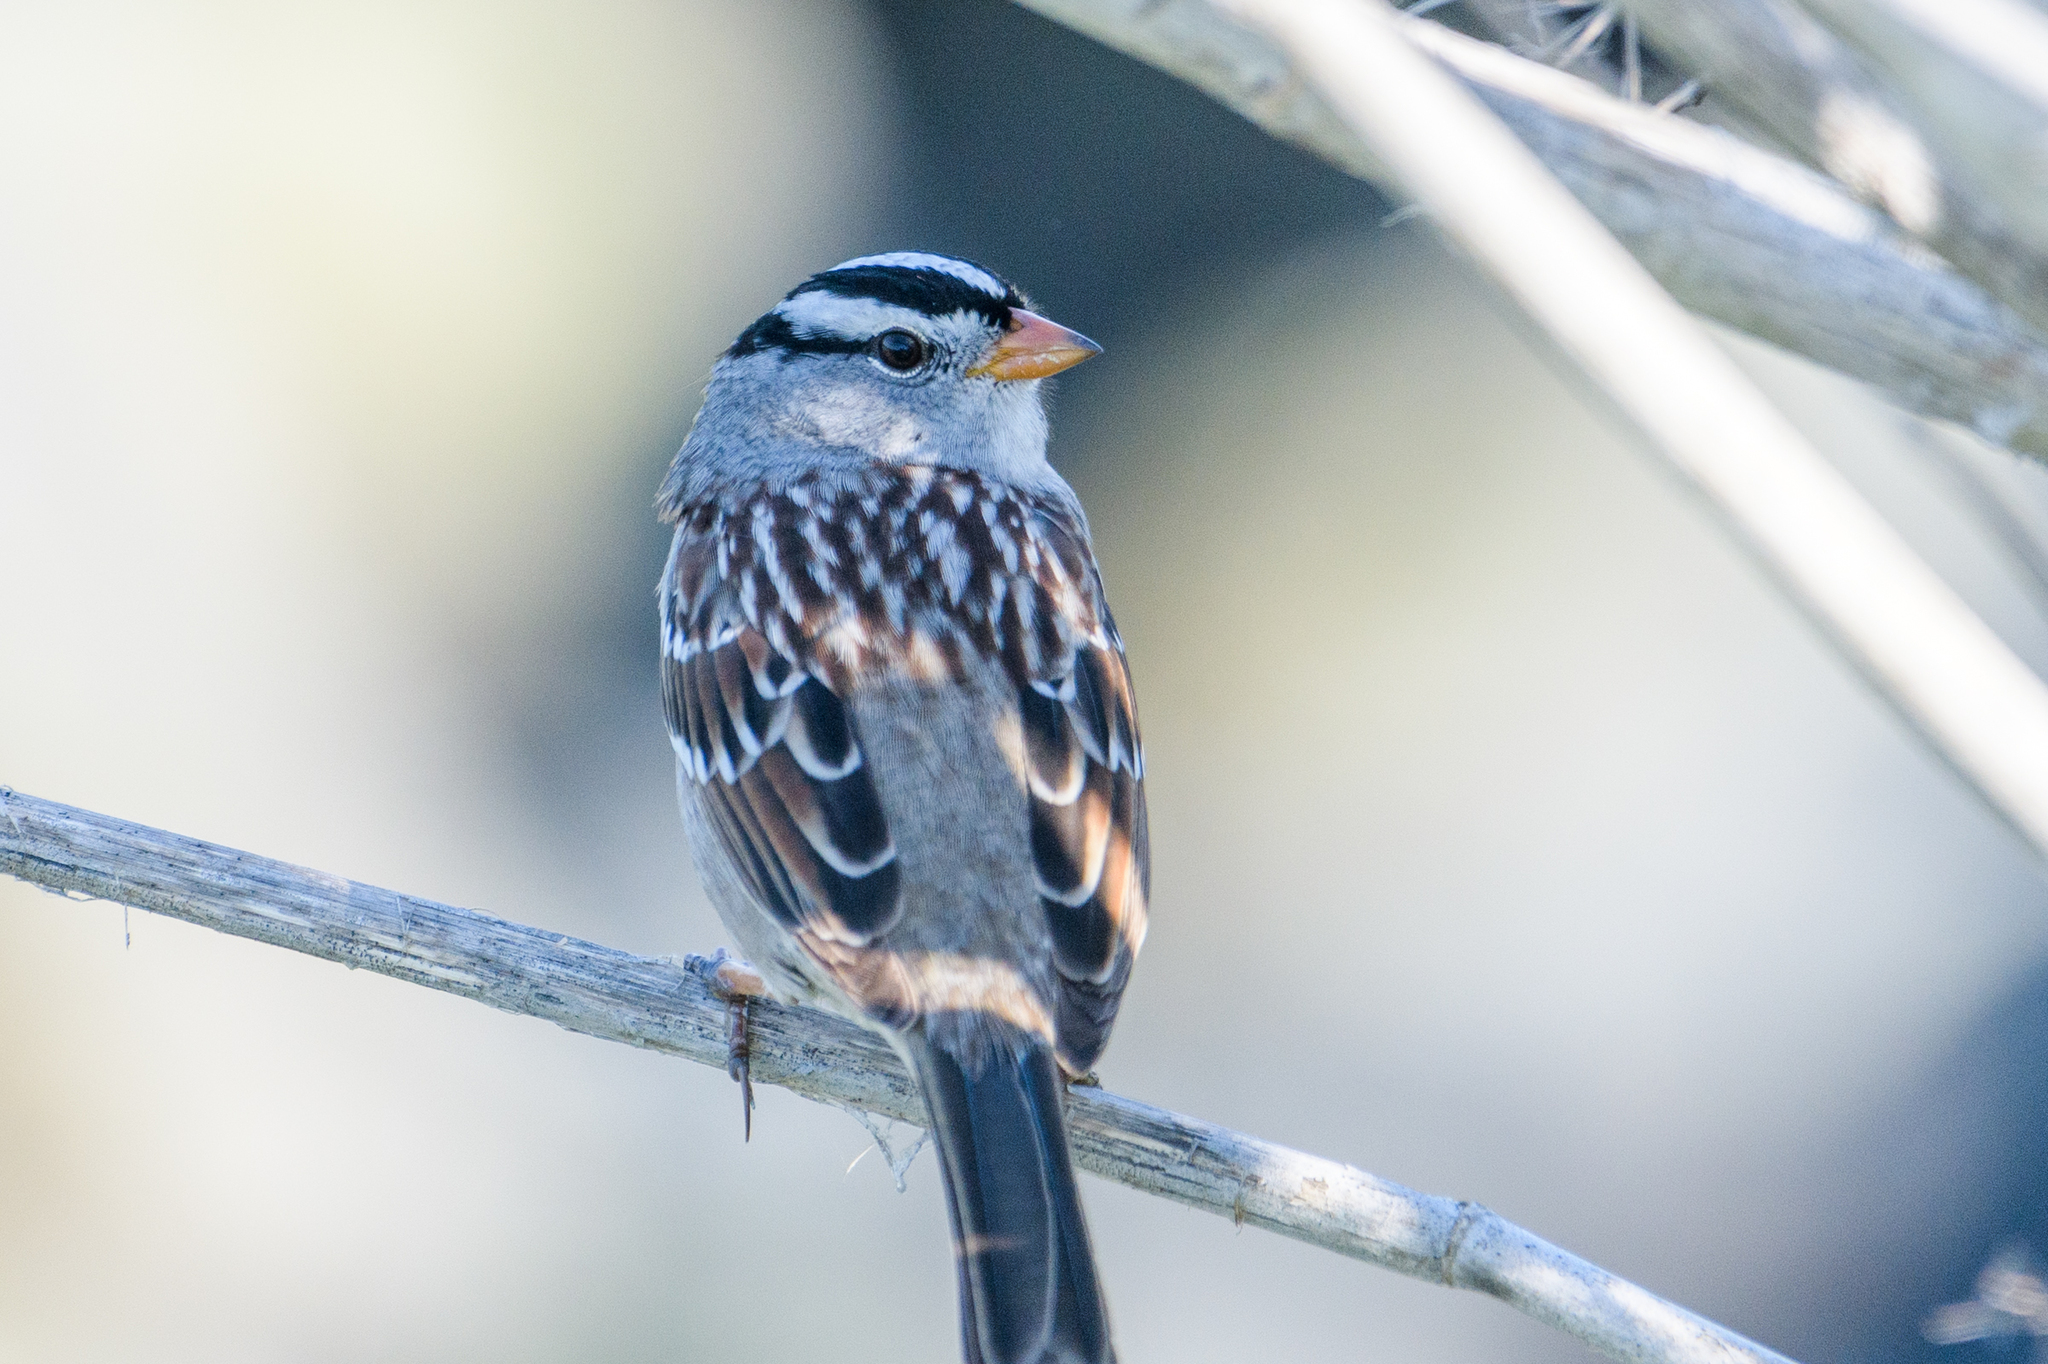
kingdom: Animalia
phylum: Chordata
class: Aves
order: Passeriformes
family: Passerellidae
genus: Zonotrichia
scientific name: Zonotrichia leucophrys
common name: White-crowned sparrow
